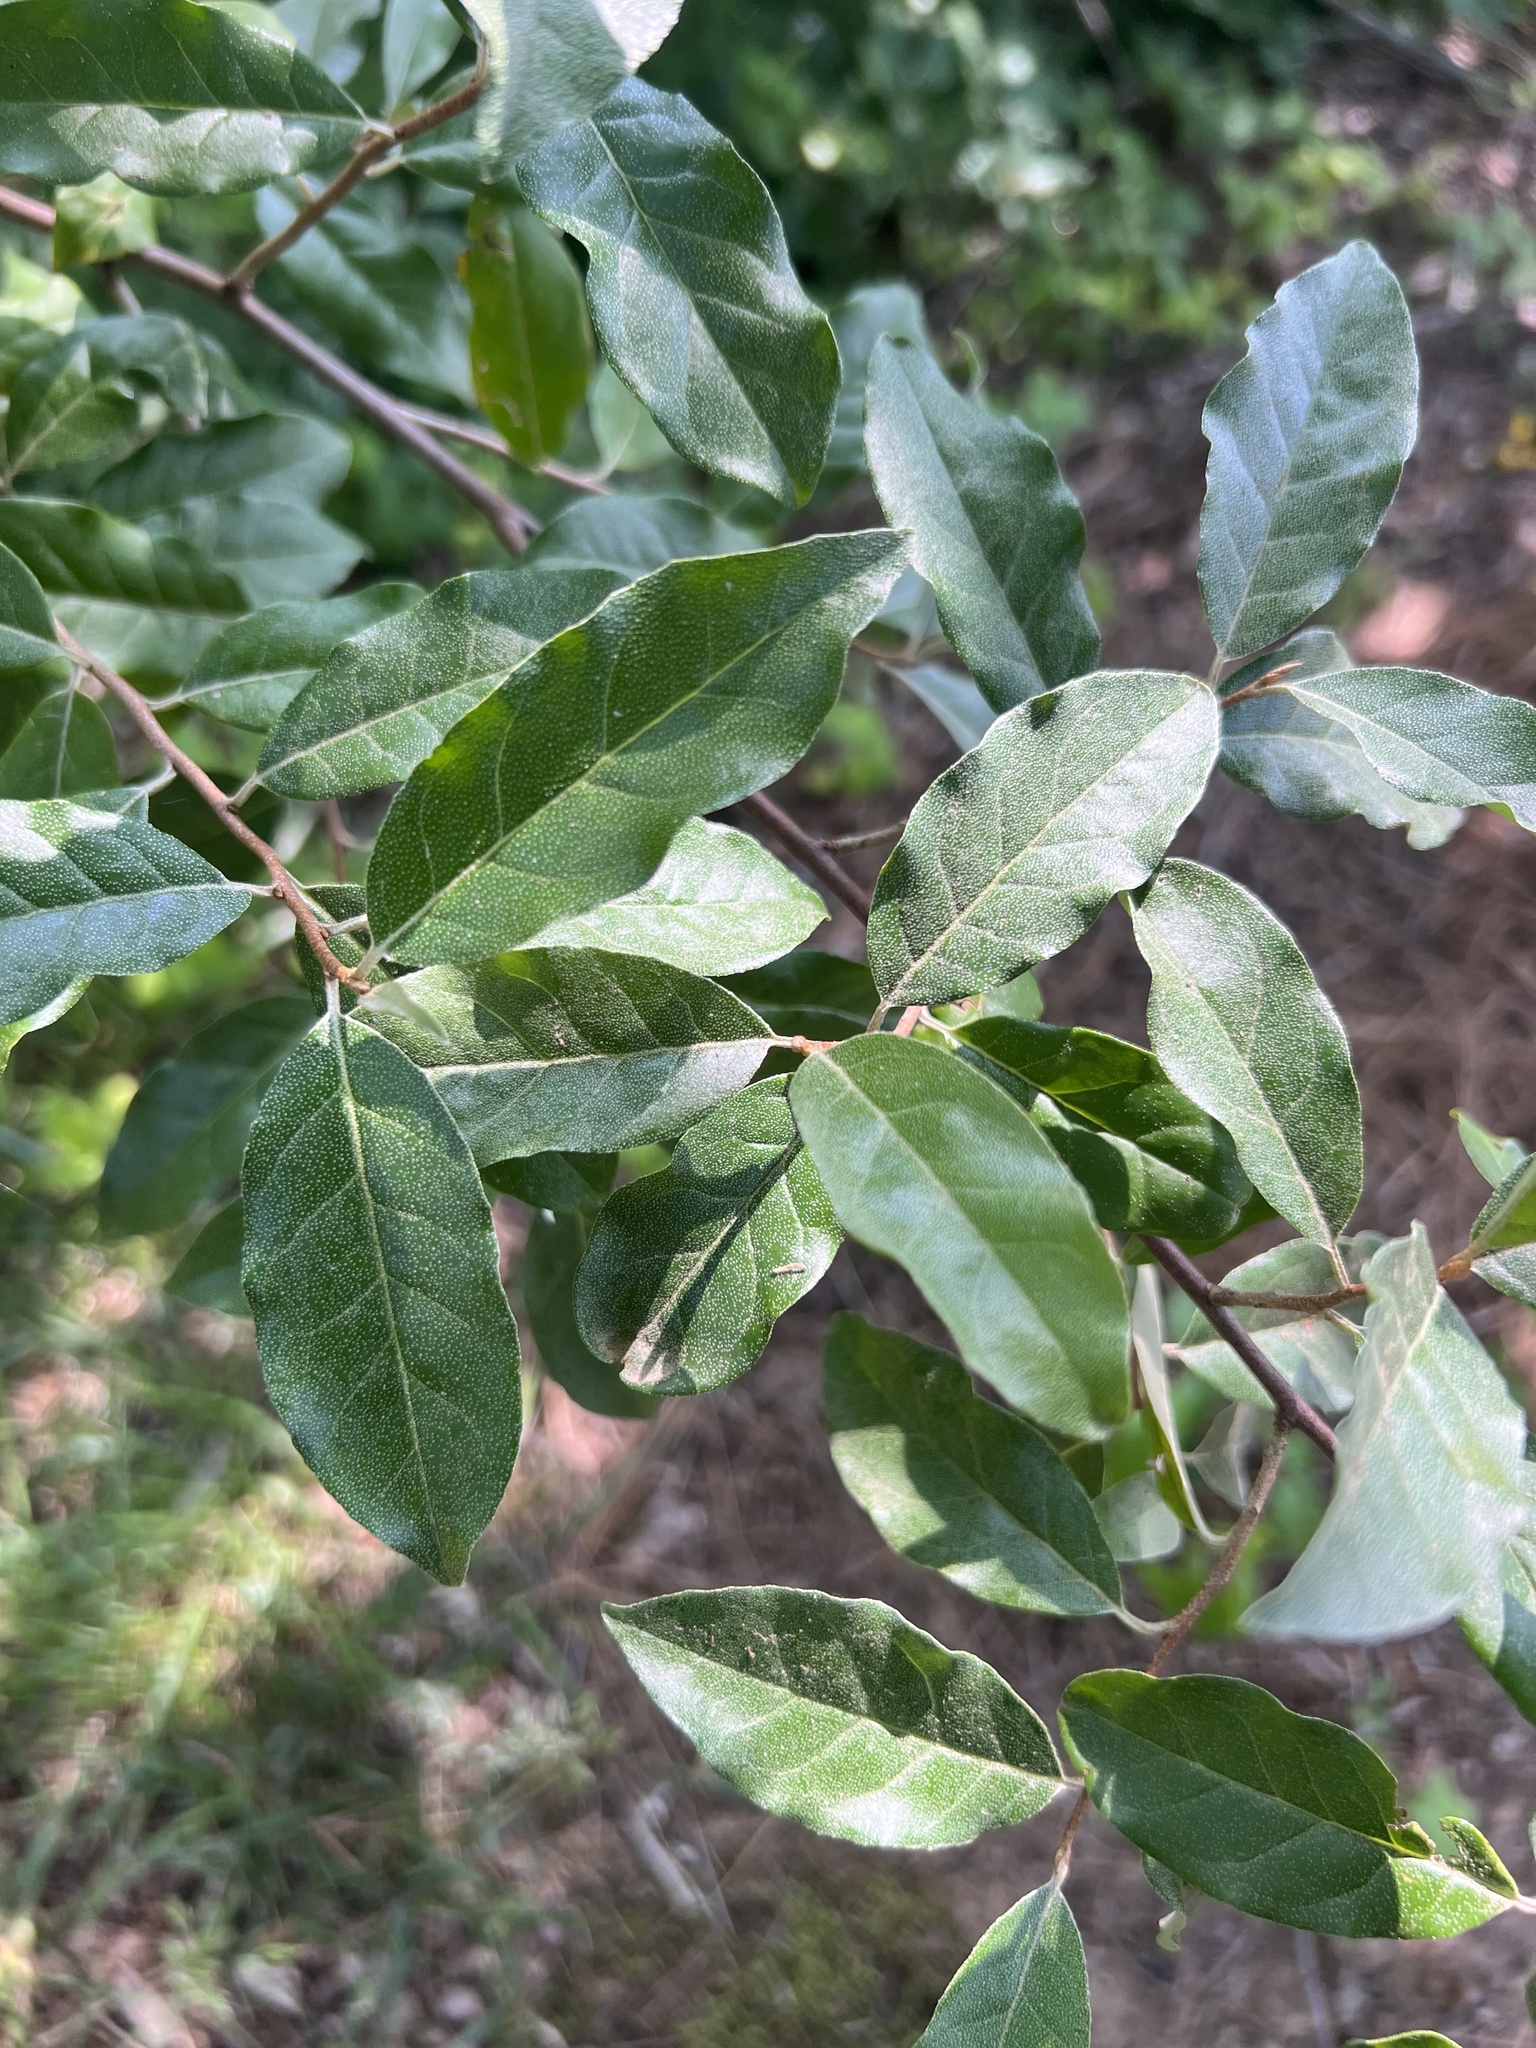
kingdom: Plantae
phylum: Tracheophyta
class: Magnoliopsida
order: Rosales
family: Elaeagnaceae
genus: Elaeagnus
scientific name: Elaeagnus umbellata
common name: Autumn olive
